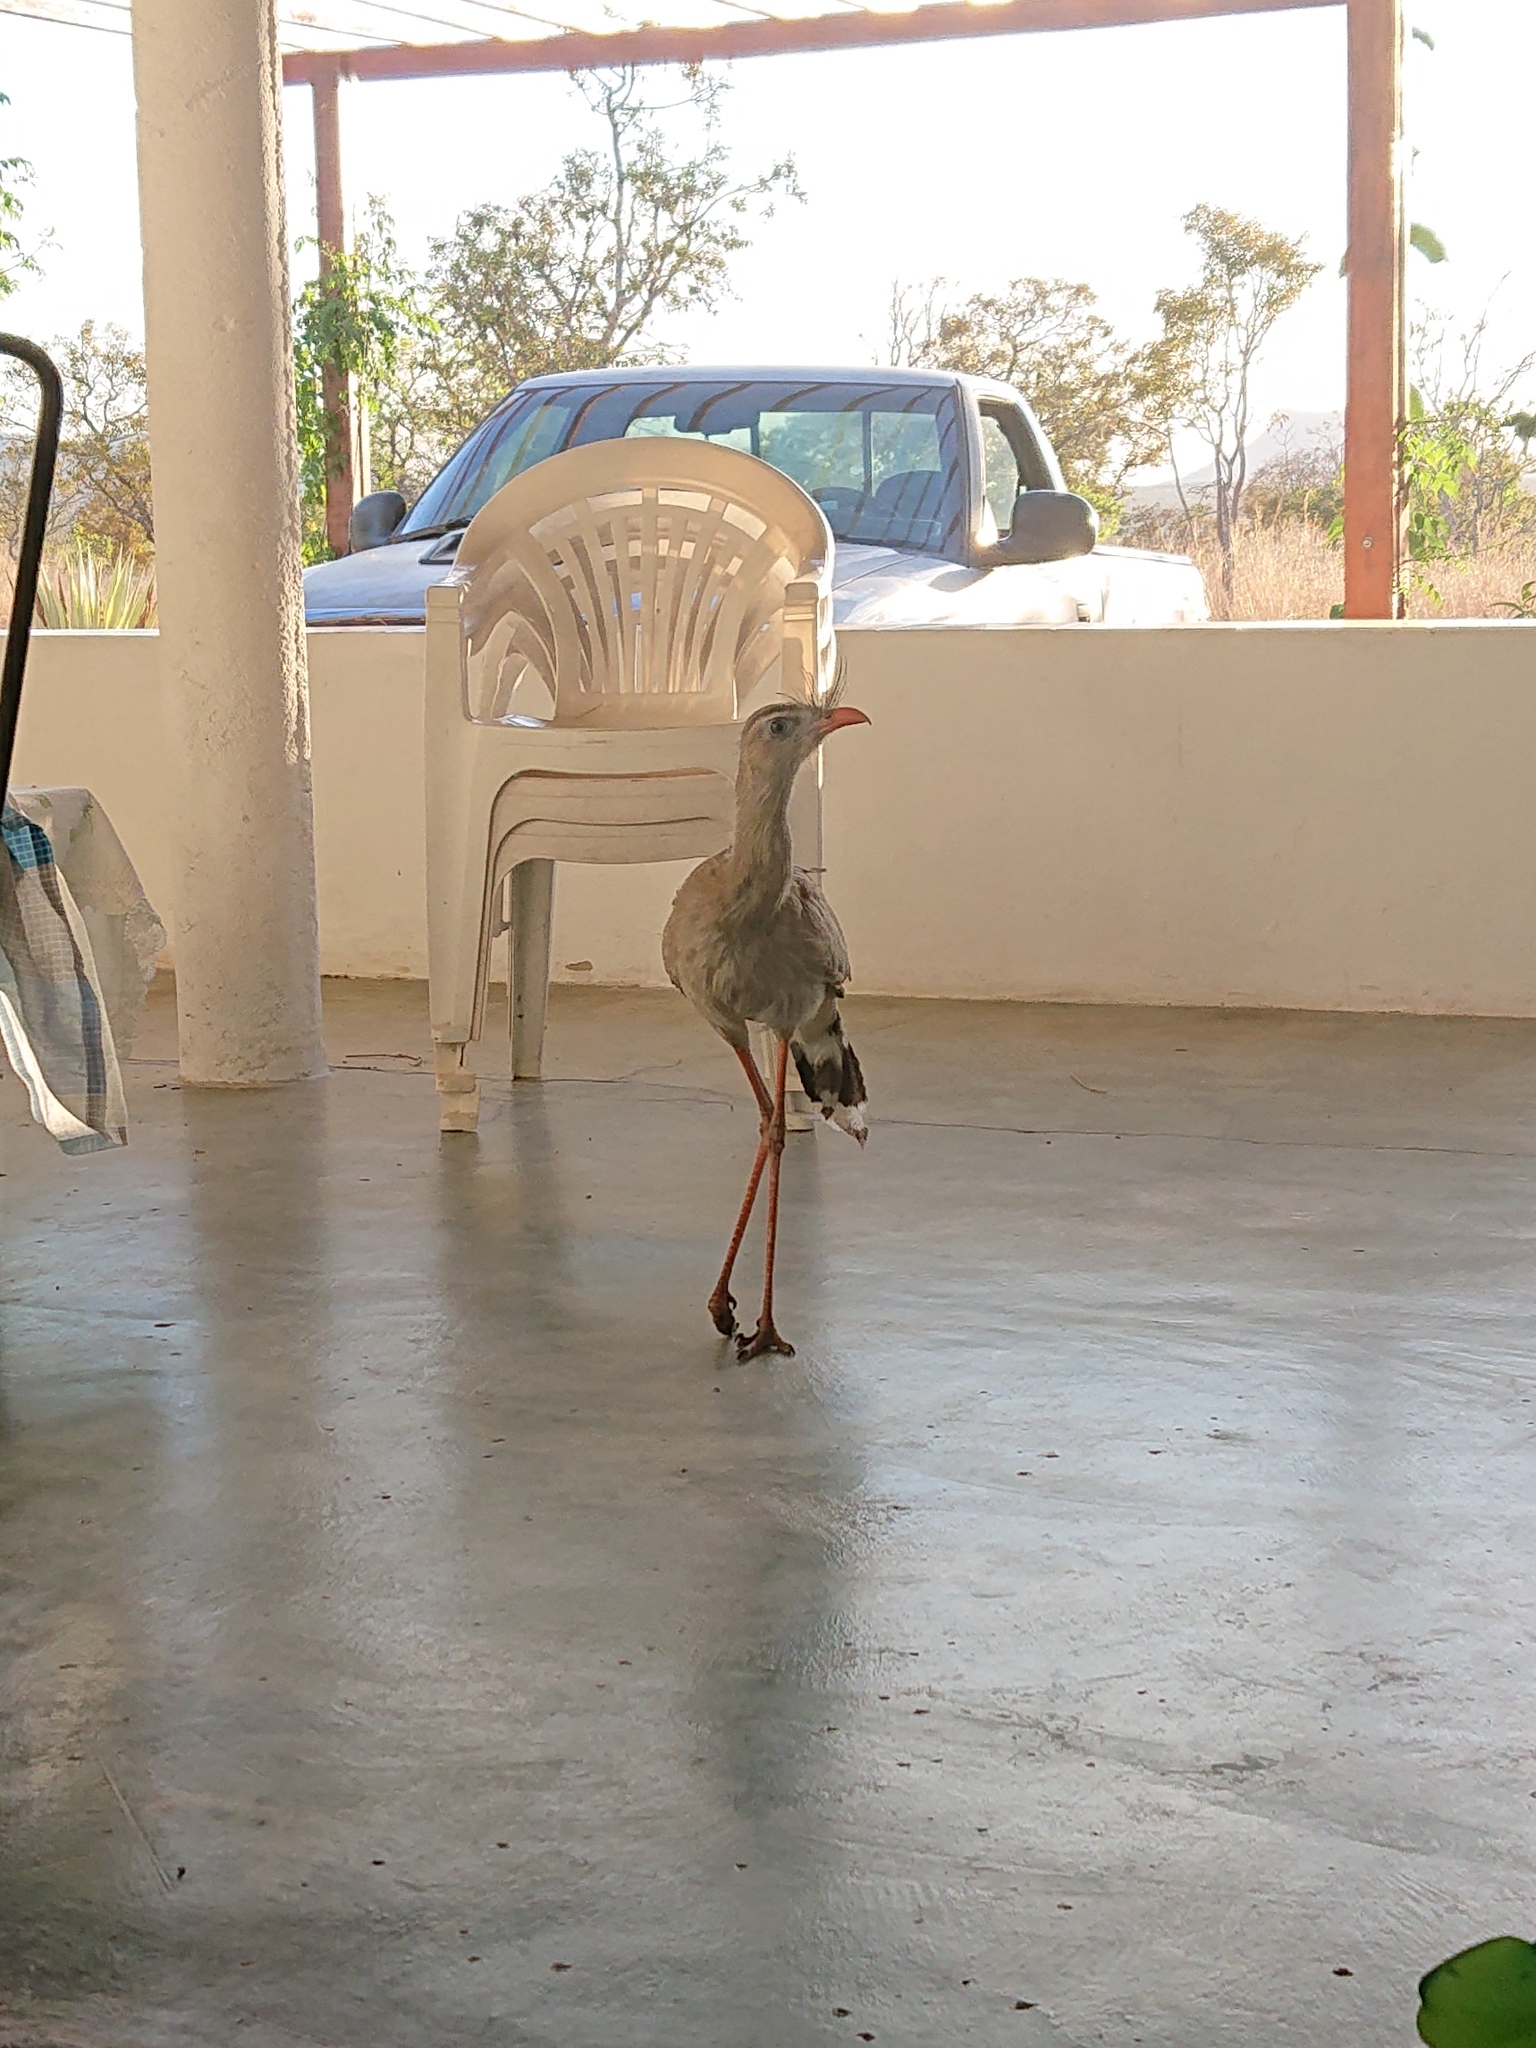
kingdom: Animalia
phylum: Chordata
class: Aves
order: Cariamiformes
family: Cariamidae
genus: Cariama
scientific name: Cariama cristata
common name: Red-legged seriema
